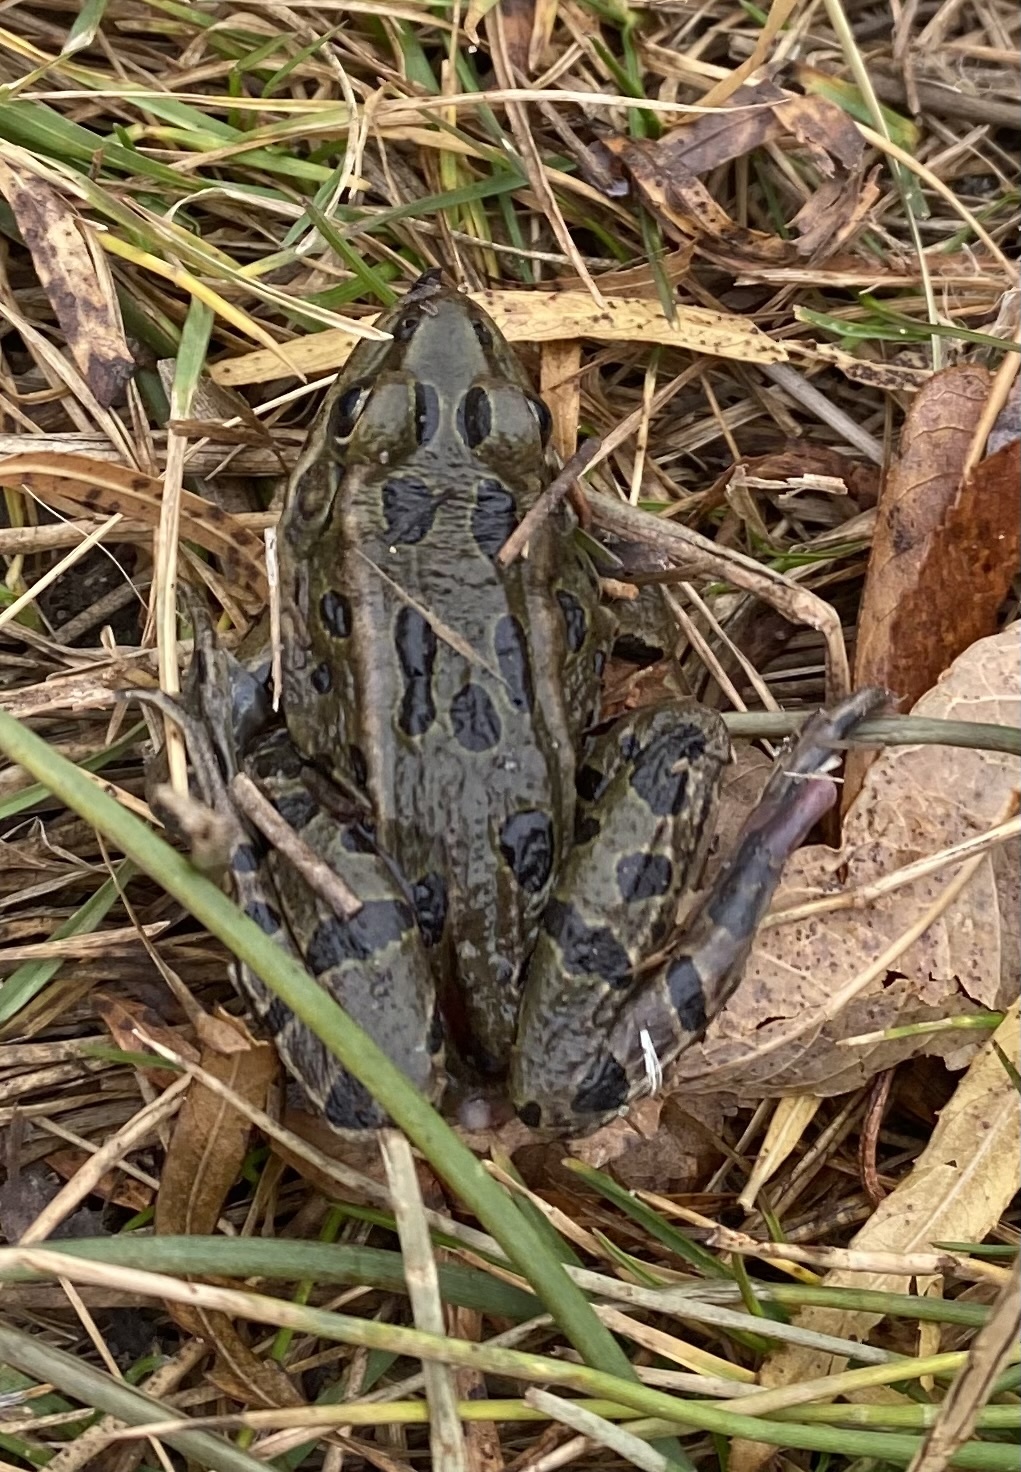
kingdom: Animalia
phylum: Chordata
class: Amphibia
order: Anura
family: Ranidae
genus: Lithobates
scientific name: Lithobates pipiens
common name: Northern leopard frog
